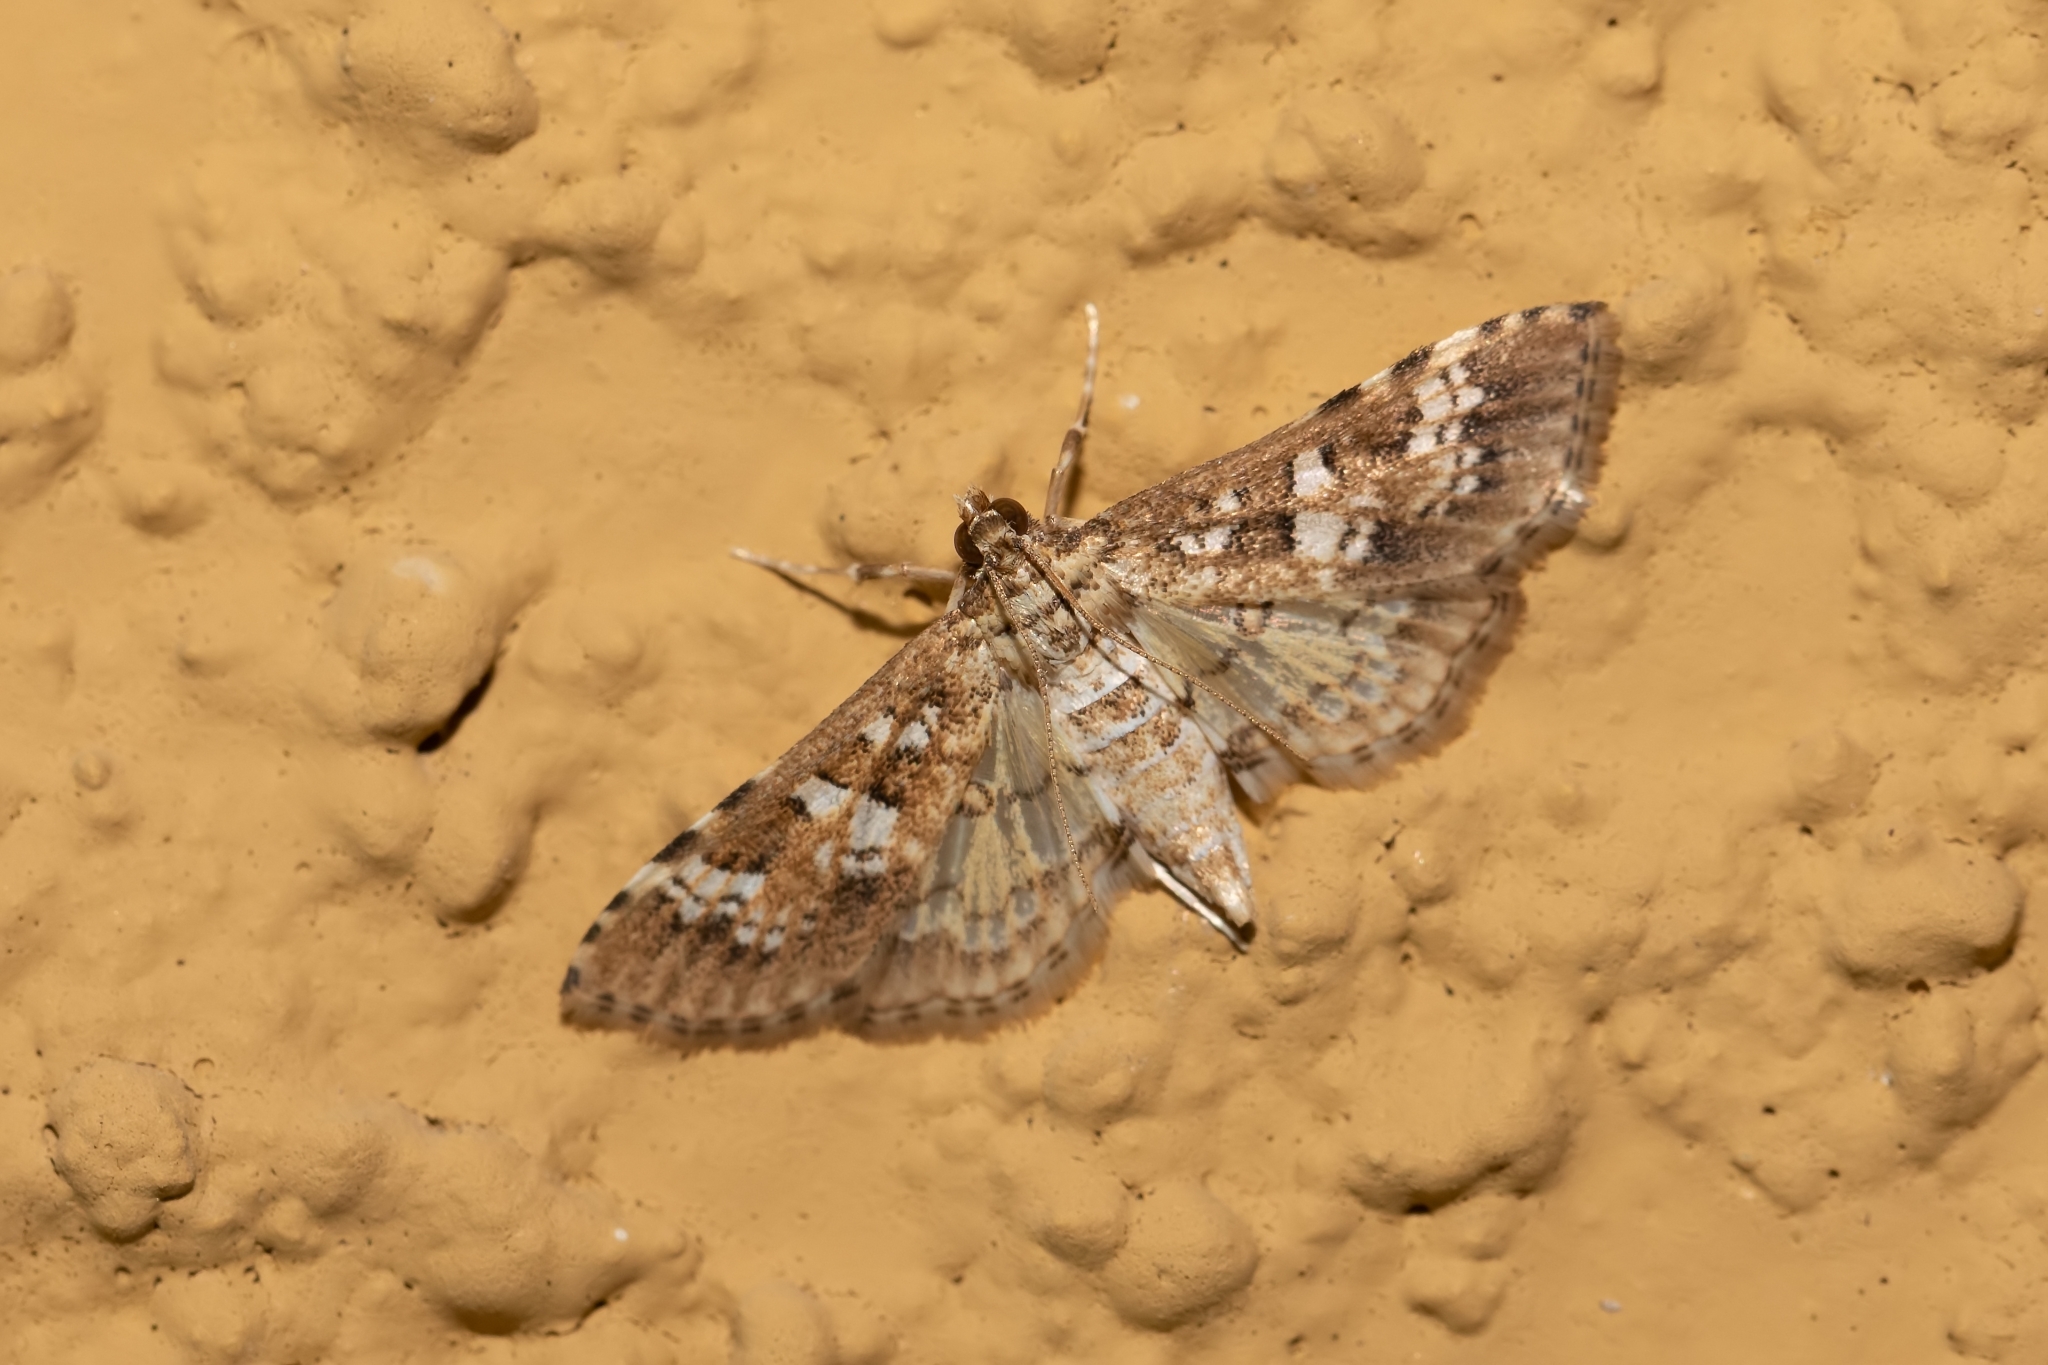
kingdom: Animalia
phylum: Arthropoda
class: Insecta
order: Lepidoptera
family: Crambidae
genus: Samea
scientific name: Samea multiplicalis
